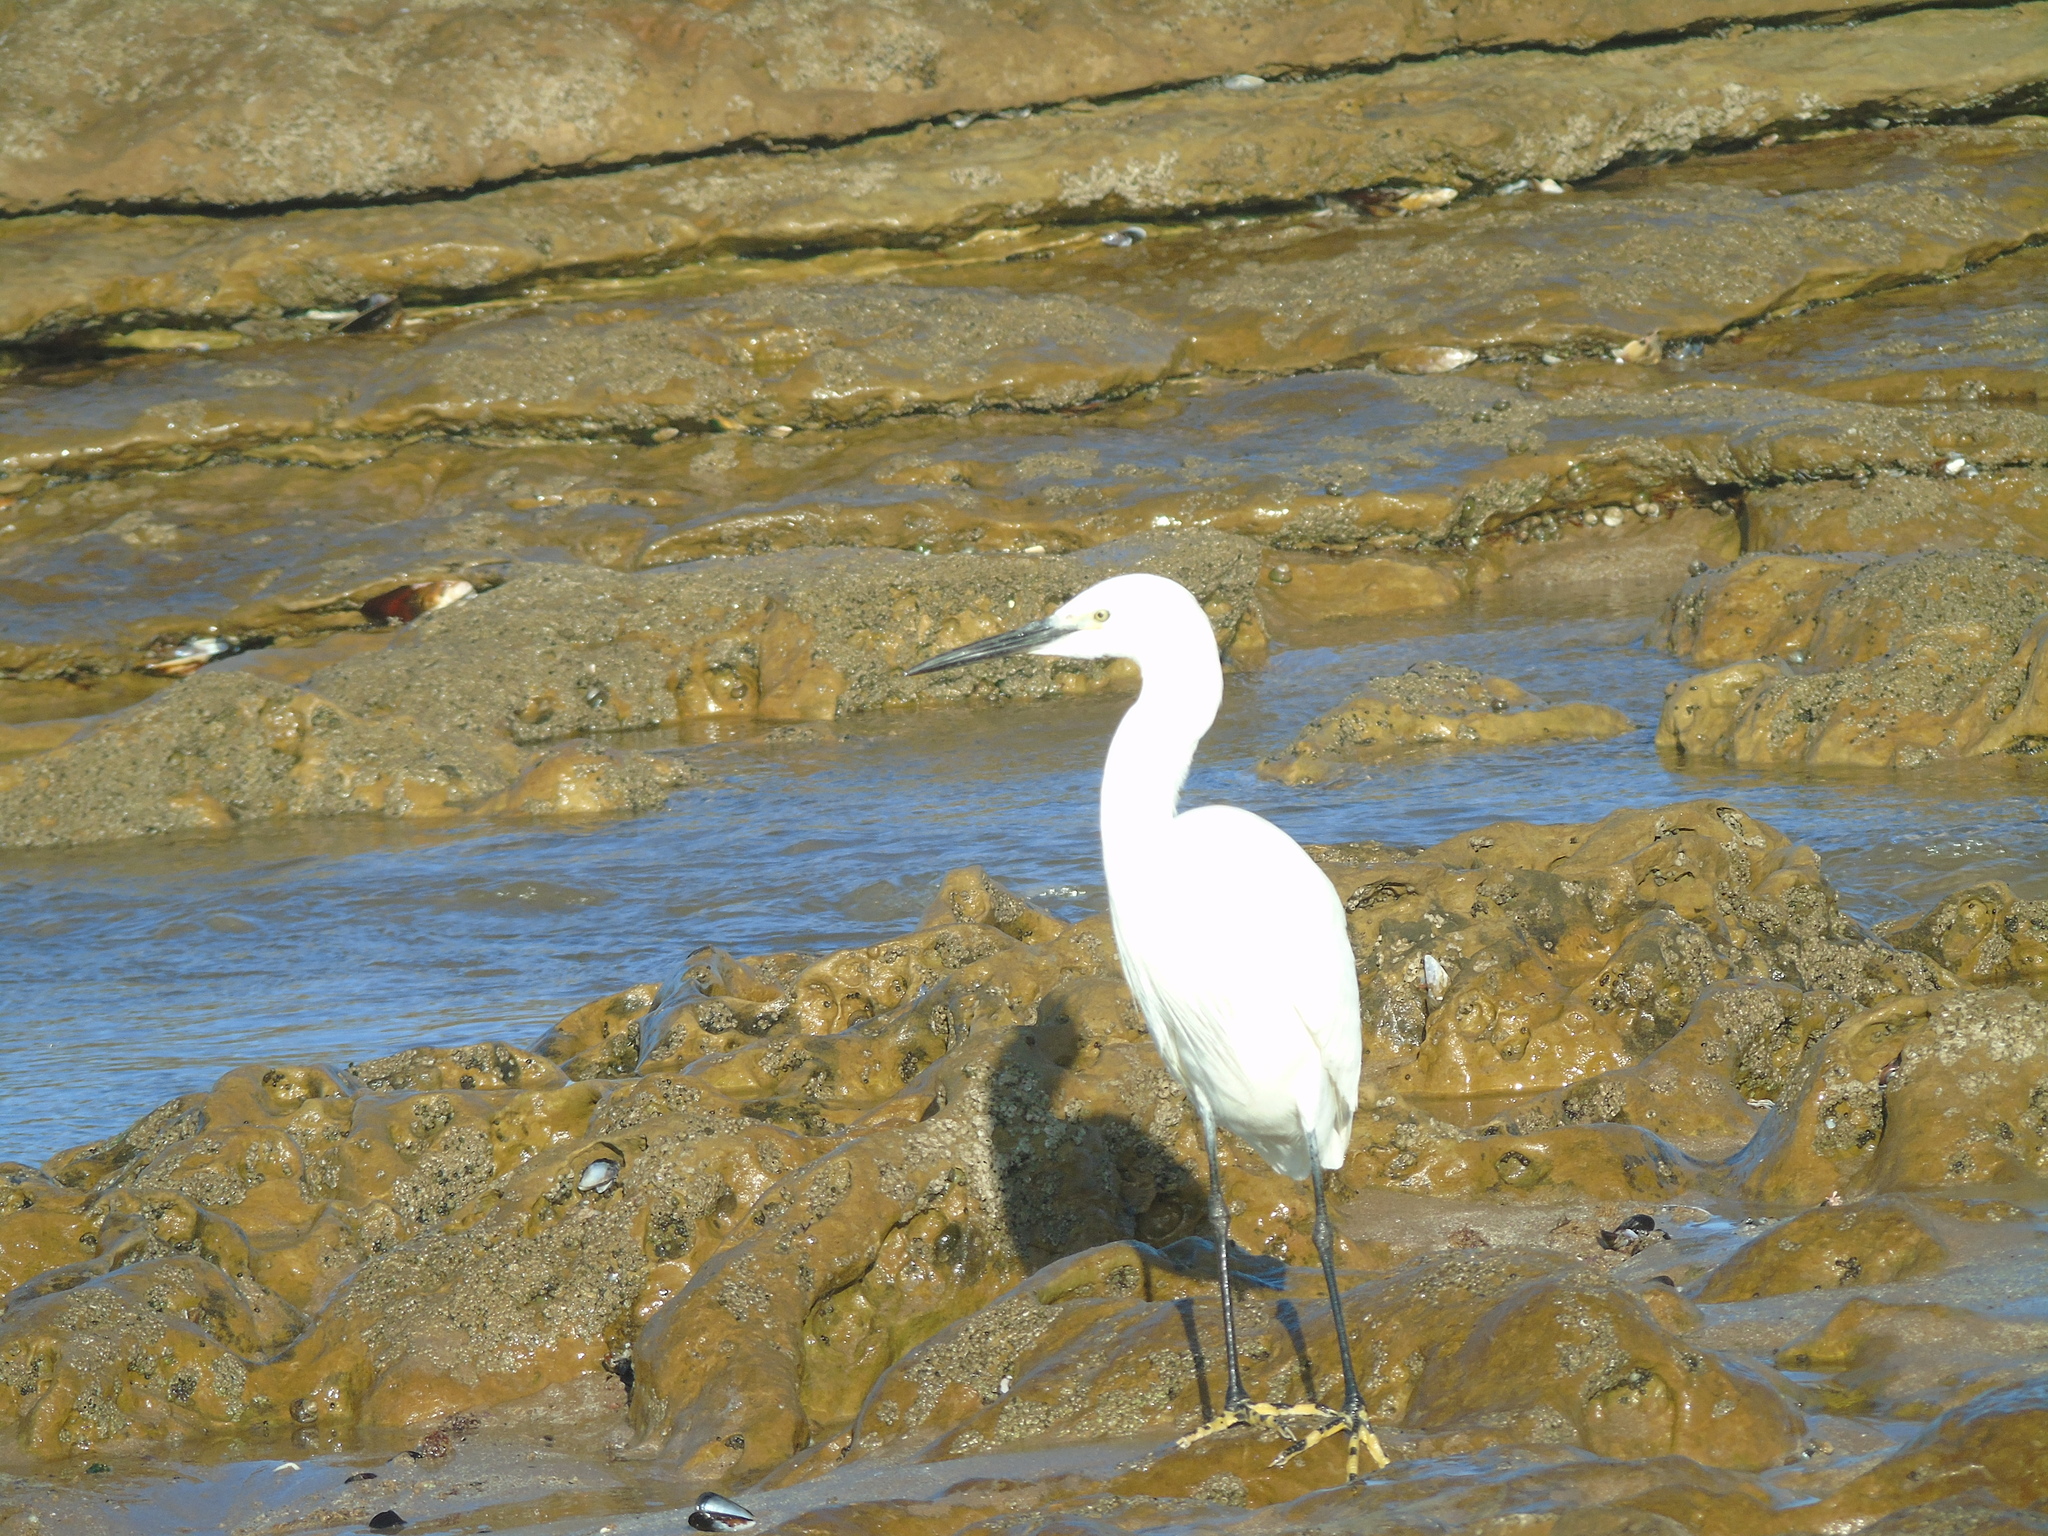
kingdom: Animalia
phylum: Chordata
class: Aves
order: Pelecaniformes
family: Ardeidae
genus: Egretta
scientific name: Egretta garzetta
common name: Little egret
